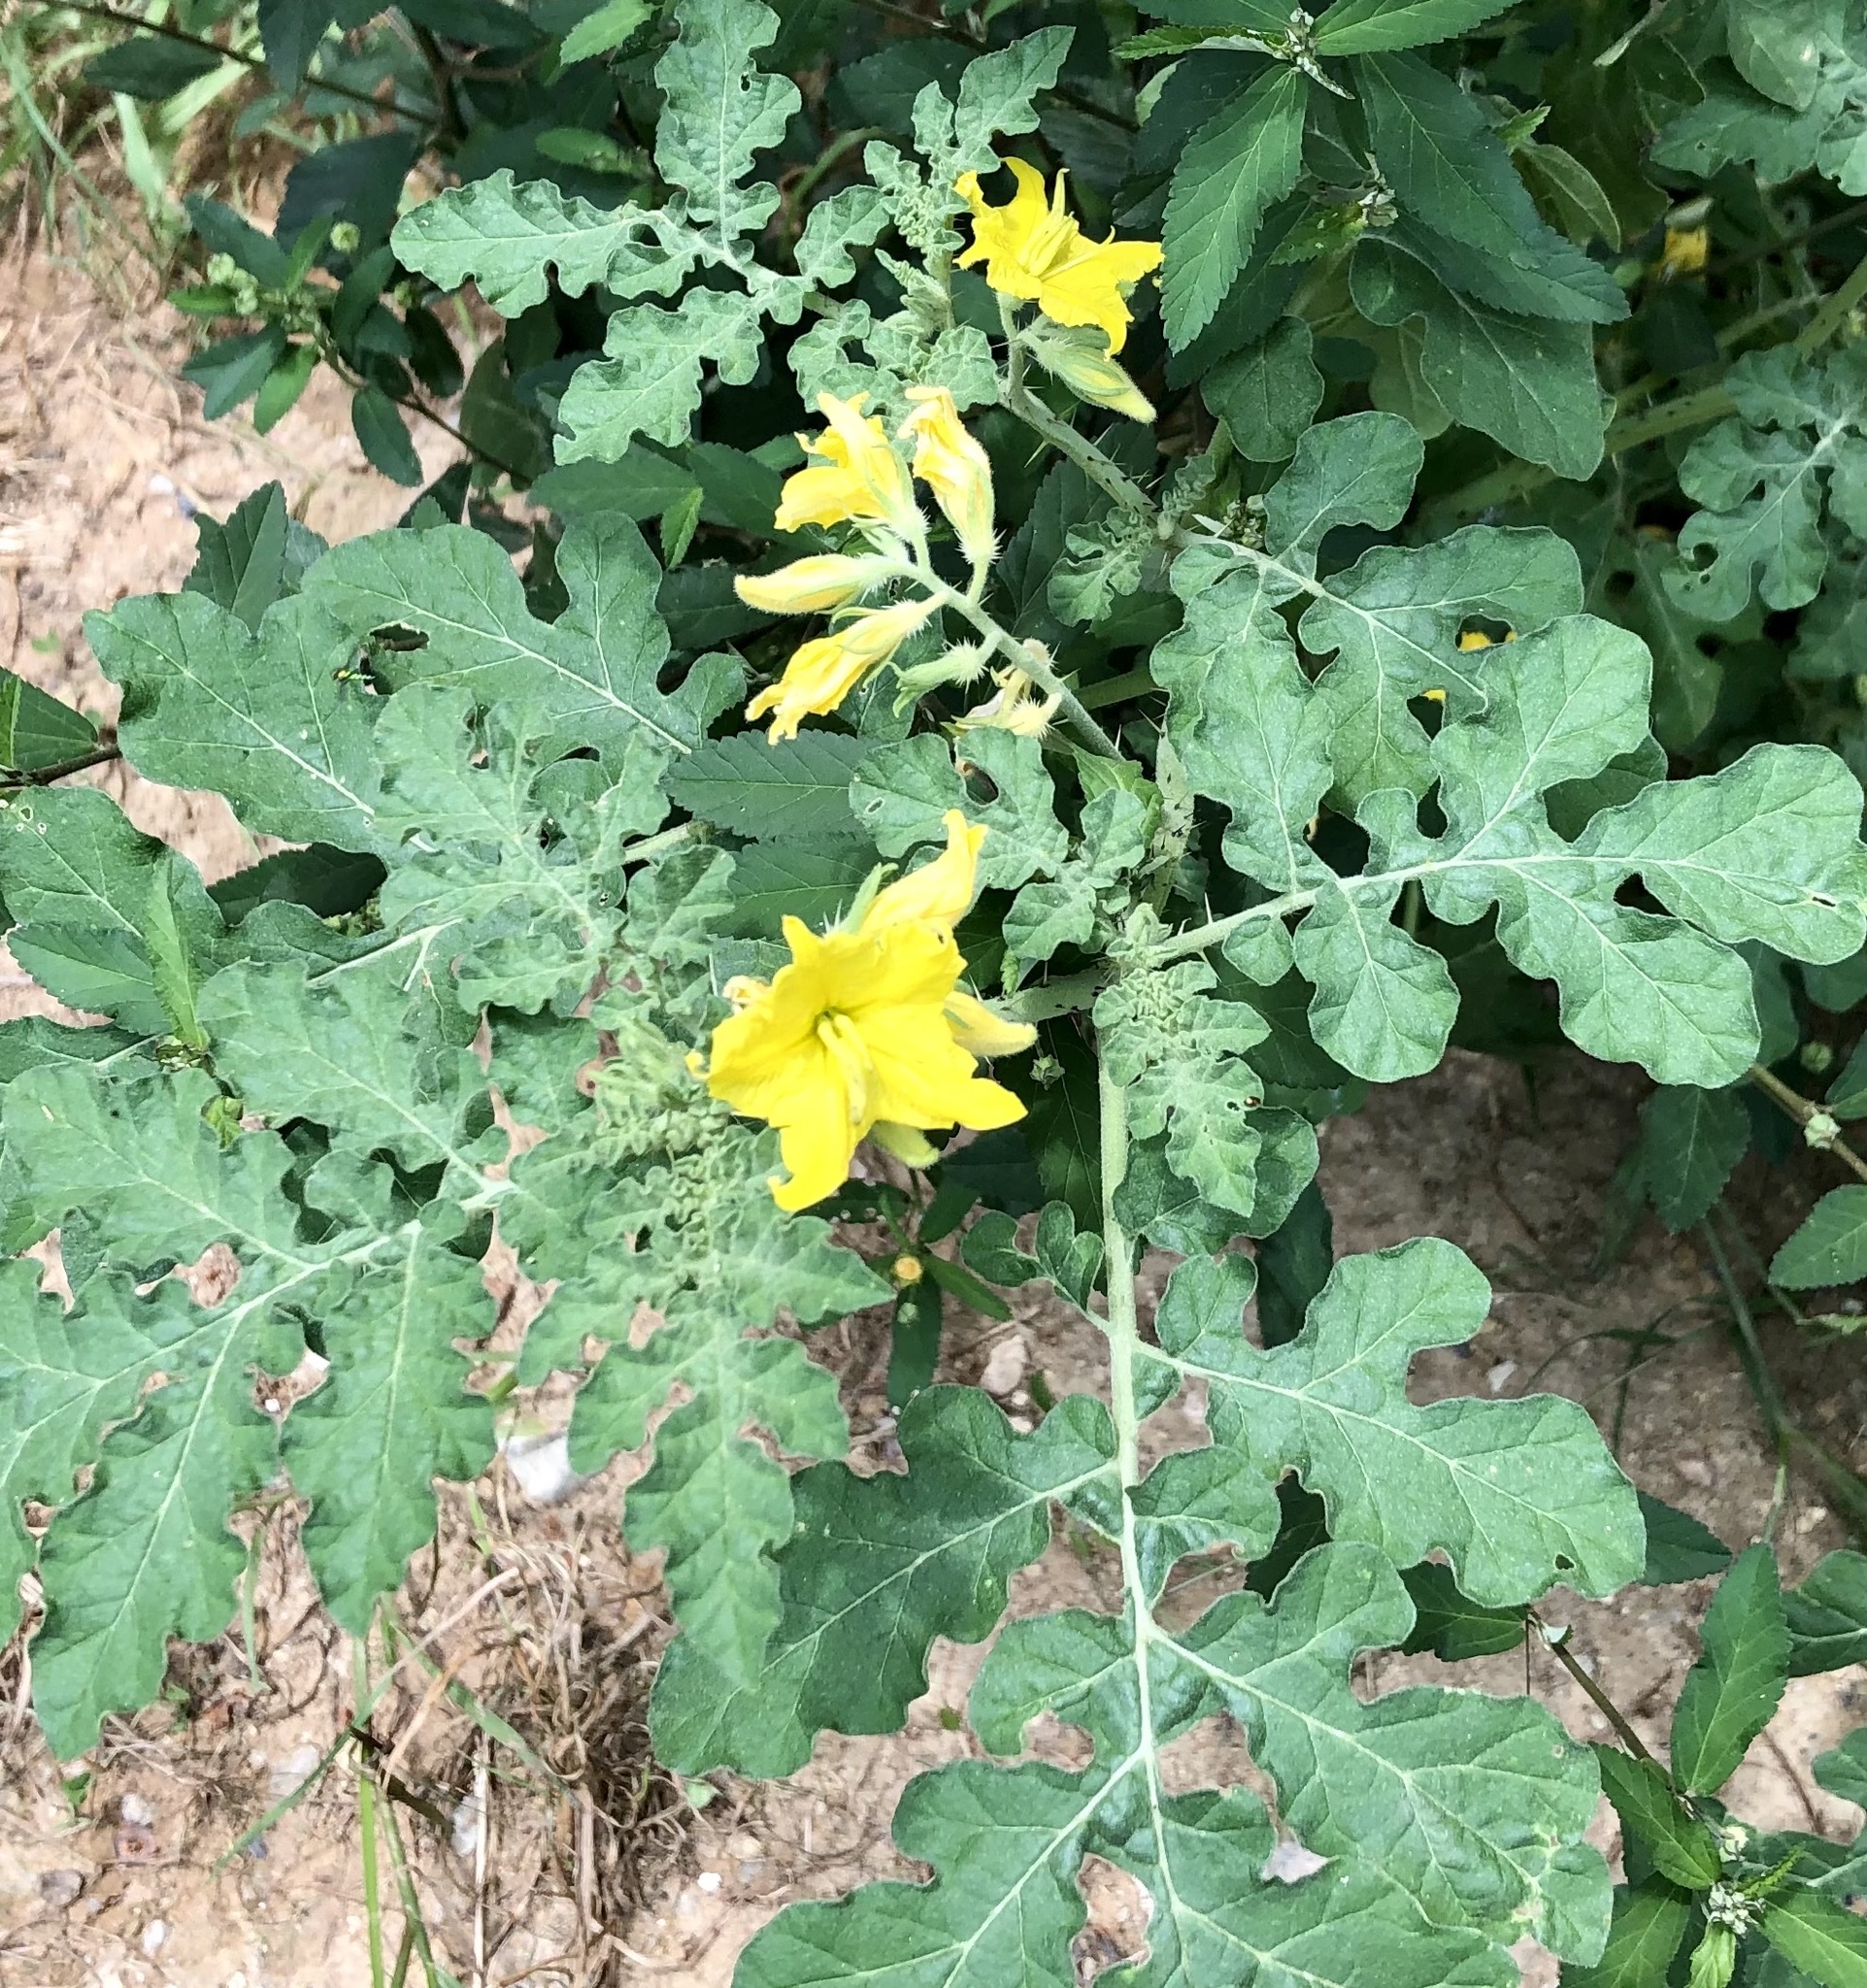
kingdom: Plantae
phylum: Tracheophyta
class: Magnoliopsida
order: Solanales
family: Solanaceae
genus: Solanum
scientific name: Solanum angustifolium
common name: Buffalobur nightshade
